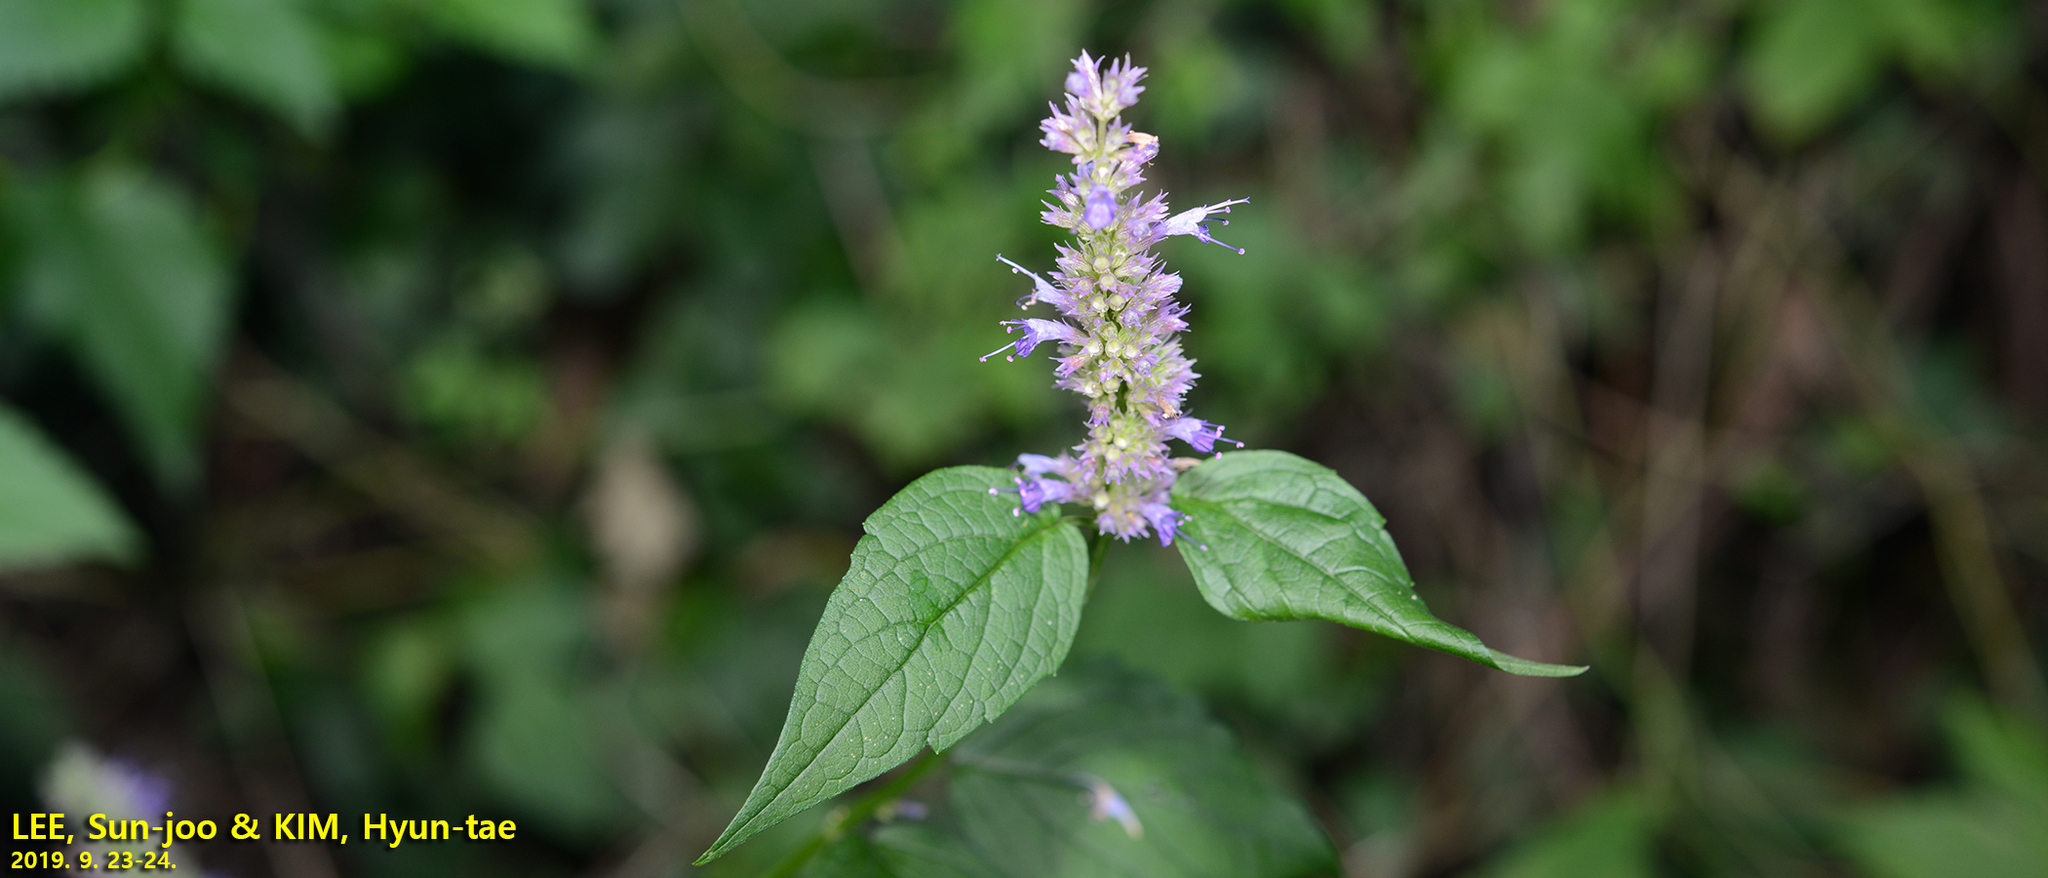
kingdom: Plantae
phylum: Tracheophyta
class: Magnoliopsida
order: Lamiales
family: Lamiaceae
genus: Agastache
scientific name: Agastache rugosa
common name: Mint
